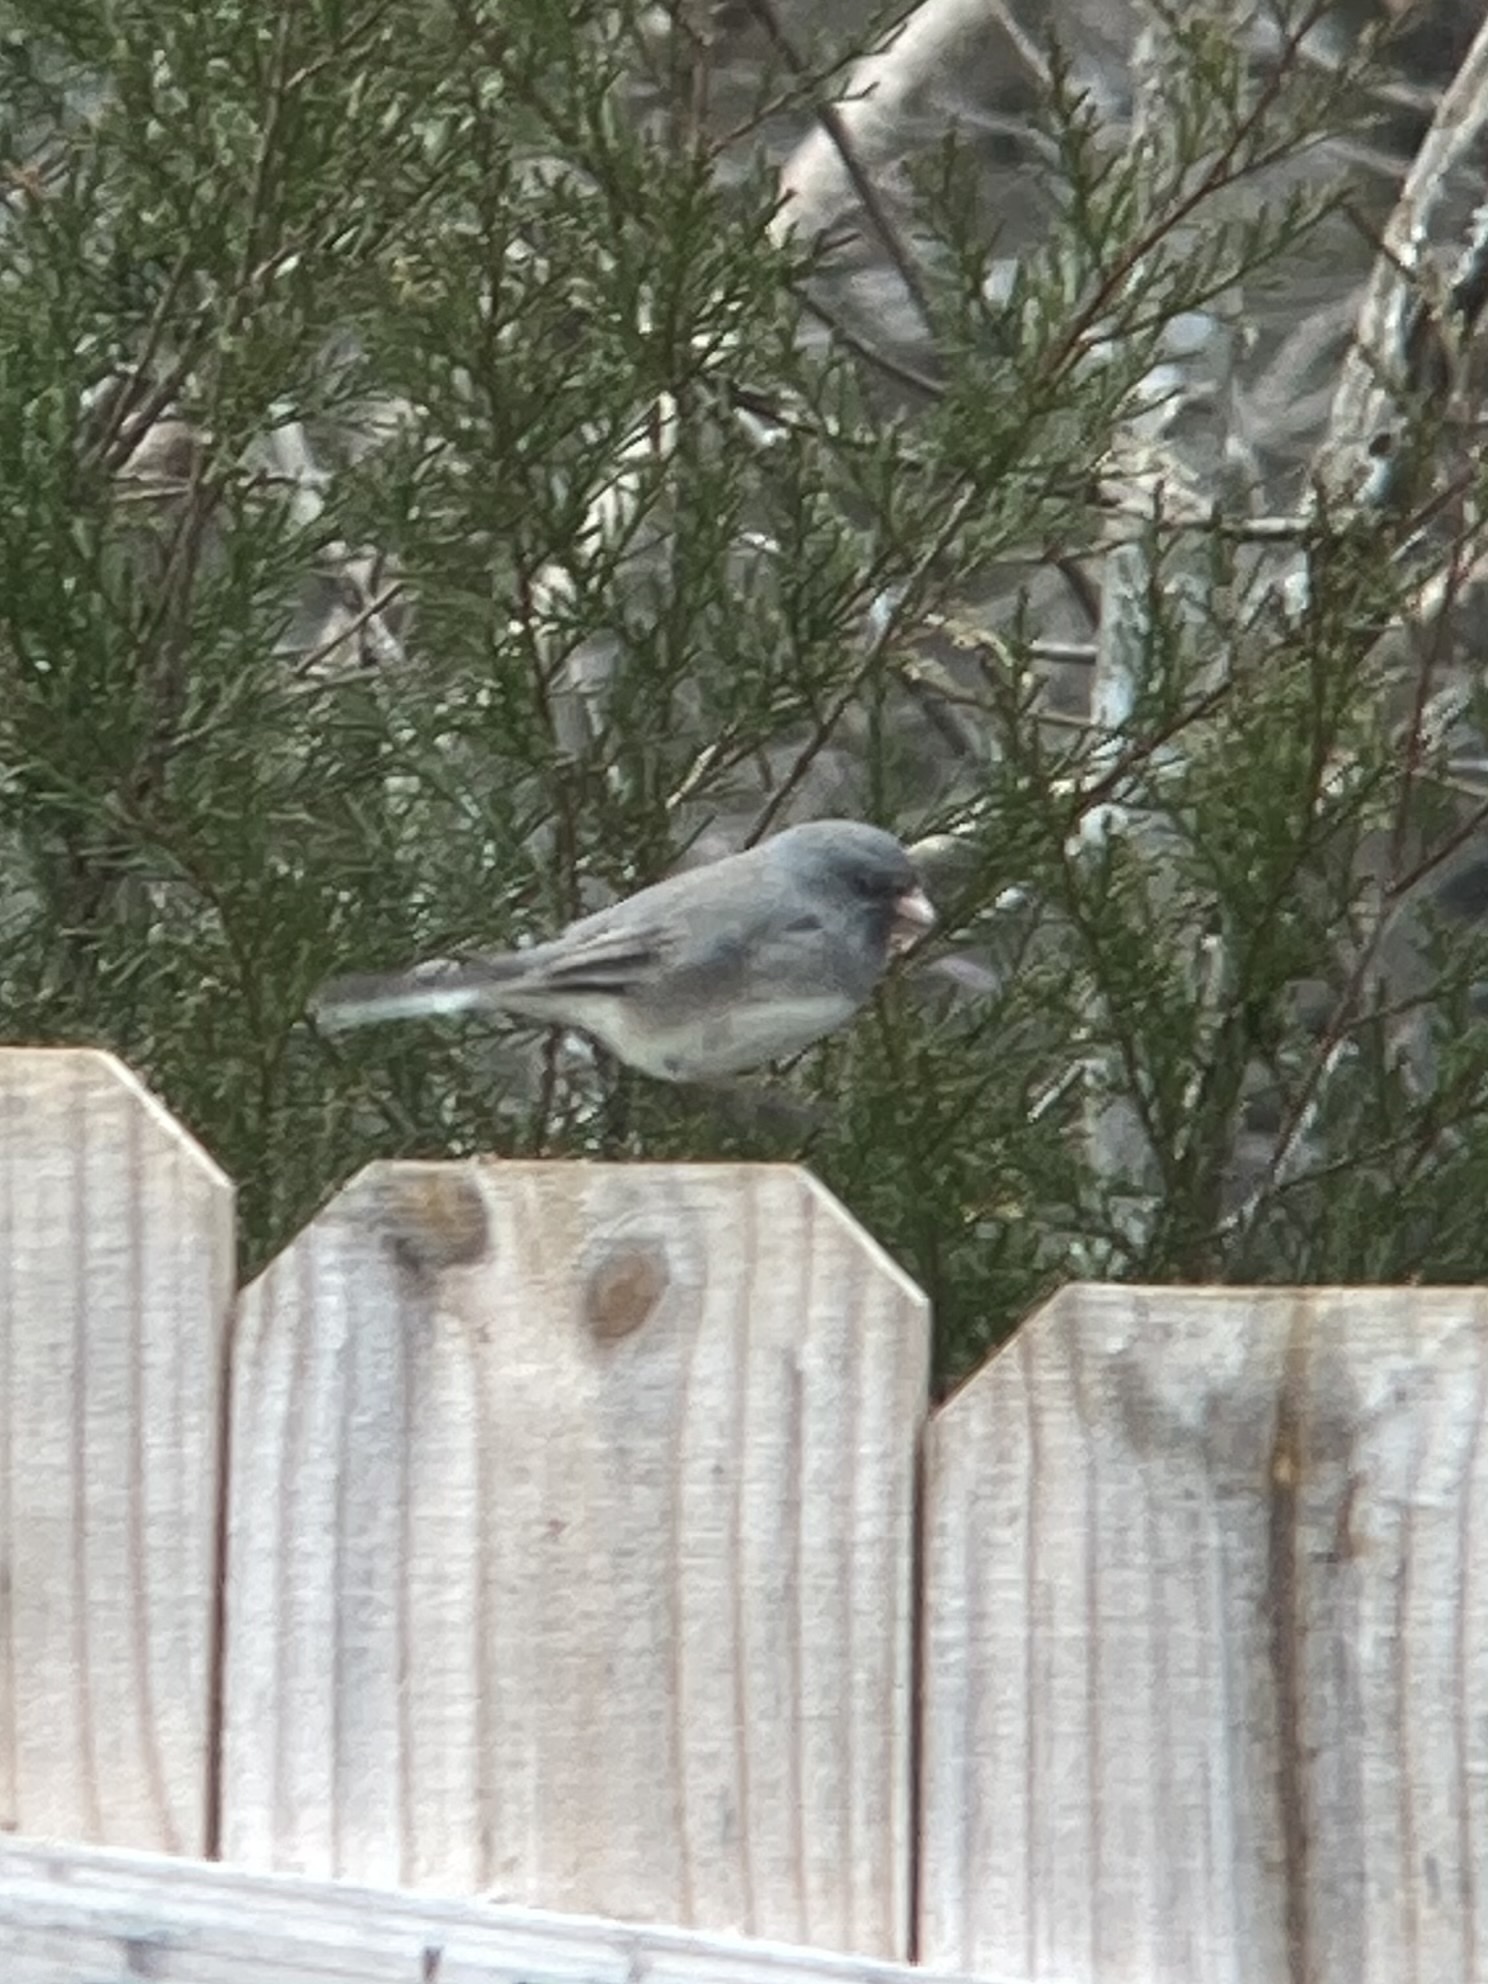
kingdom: Animalia
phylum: Chordata
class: Aves
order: Passeriformes
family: Passerellidae
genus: Junco
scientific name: Junco hyemalis
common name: Dark-eyed junco
